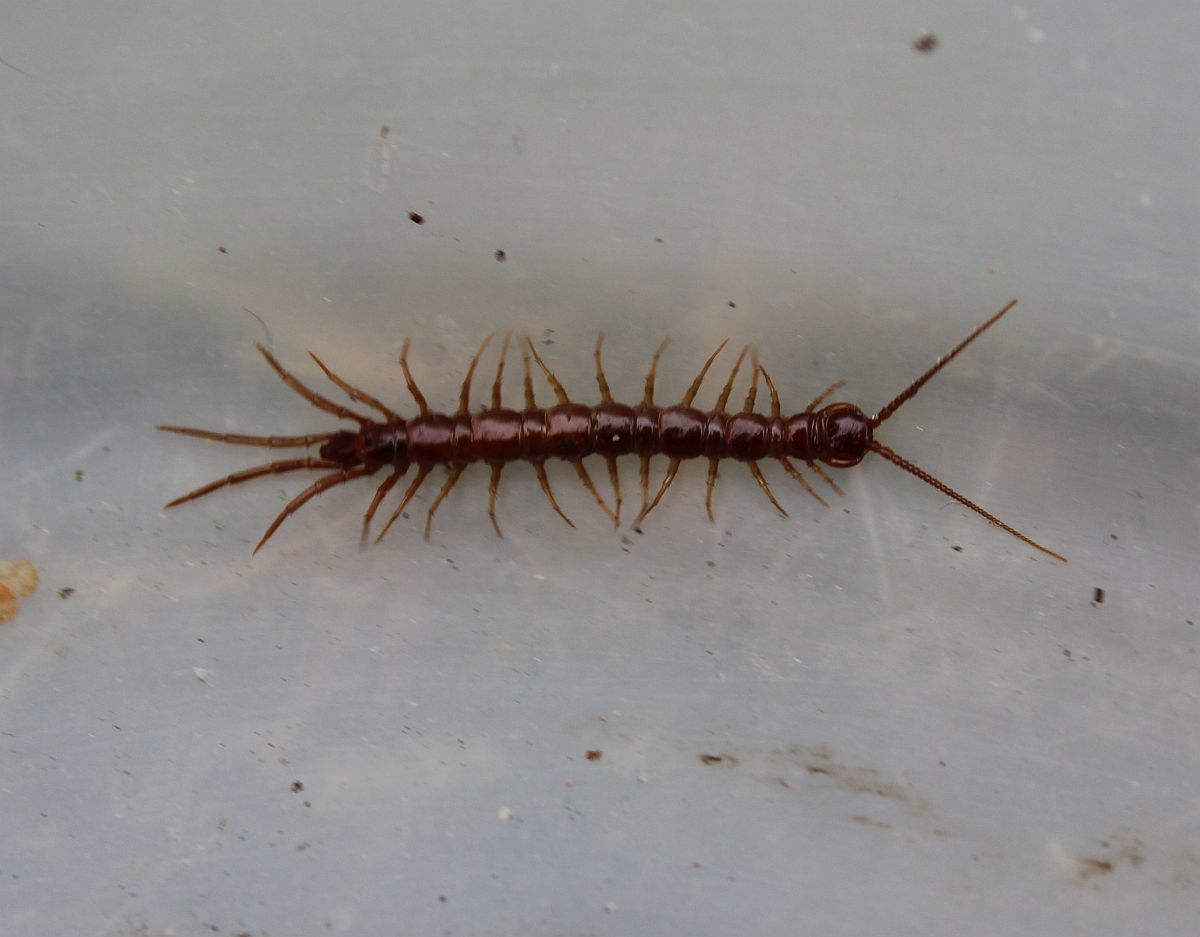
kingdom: Animalia
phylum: Arthropoda
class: Chilopoda
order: Lithobiomorpha
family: Lithobiidae
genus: Lithobius
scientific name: Lithobius forficatus
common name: Centipede
